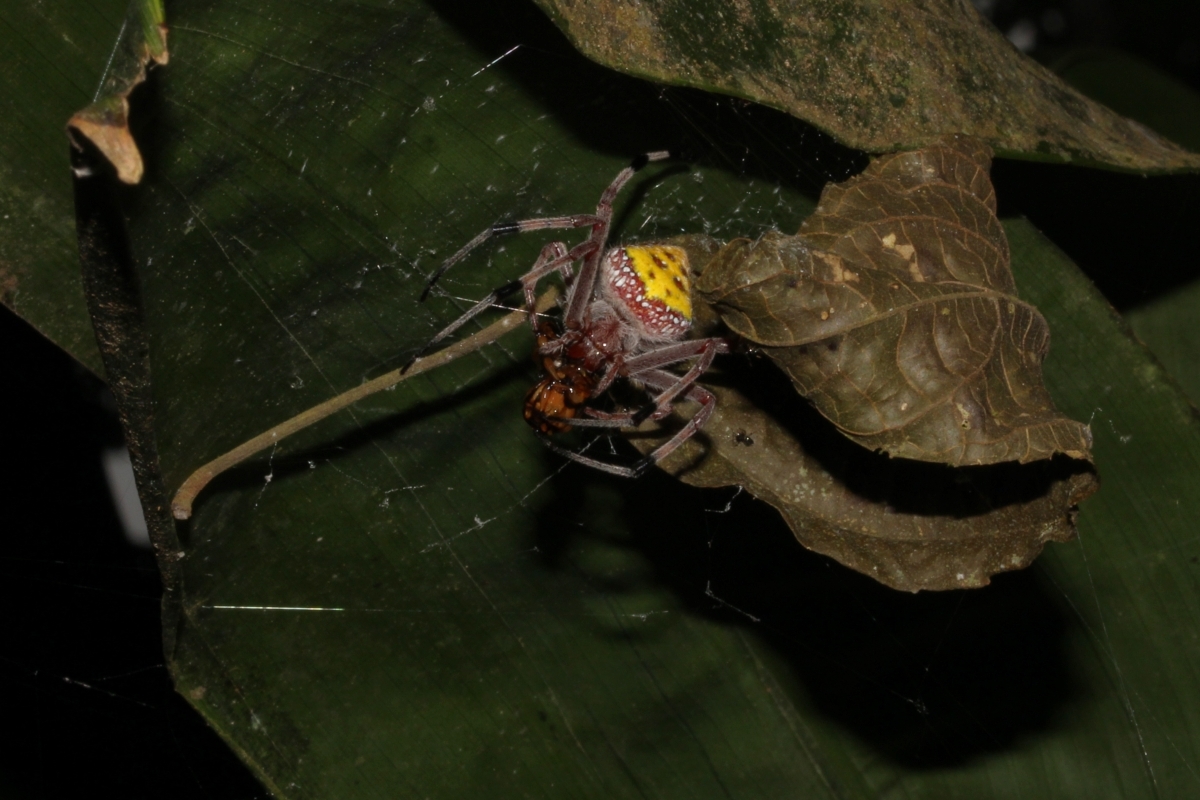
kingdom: Animalia
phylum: Arthropoda
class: Arachnida
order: Araneae
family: Araneidae
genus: Eriophora
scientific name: Eriophora nephiloides
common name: Orb weavers
